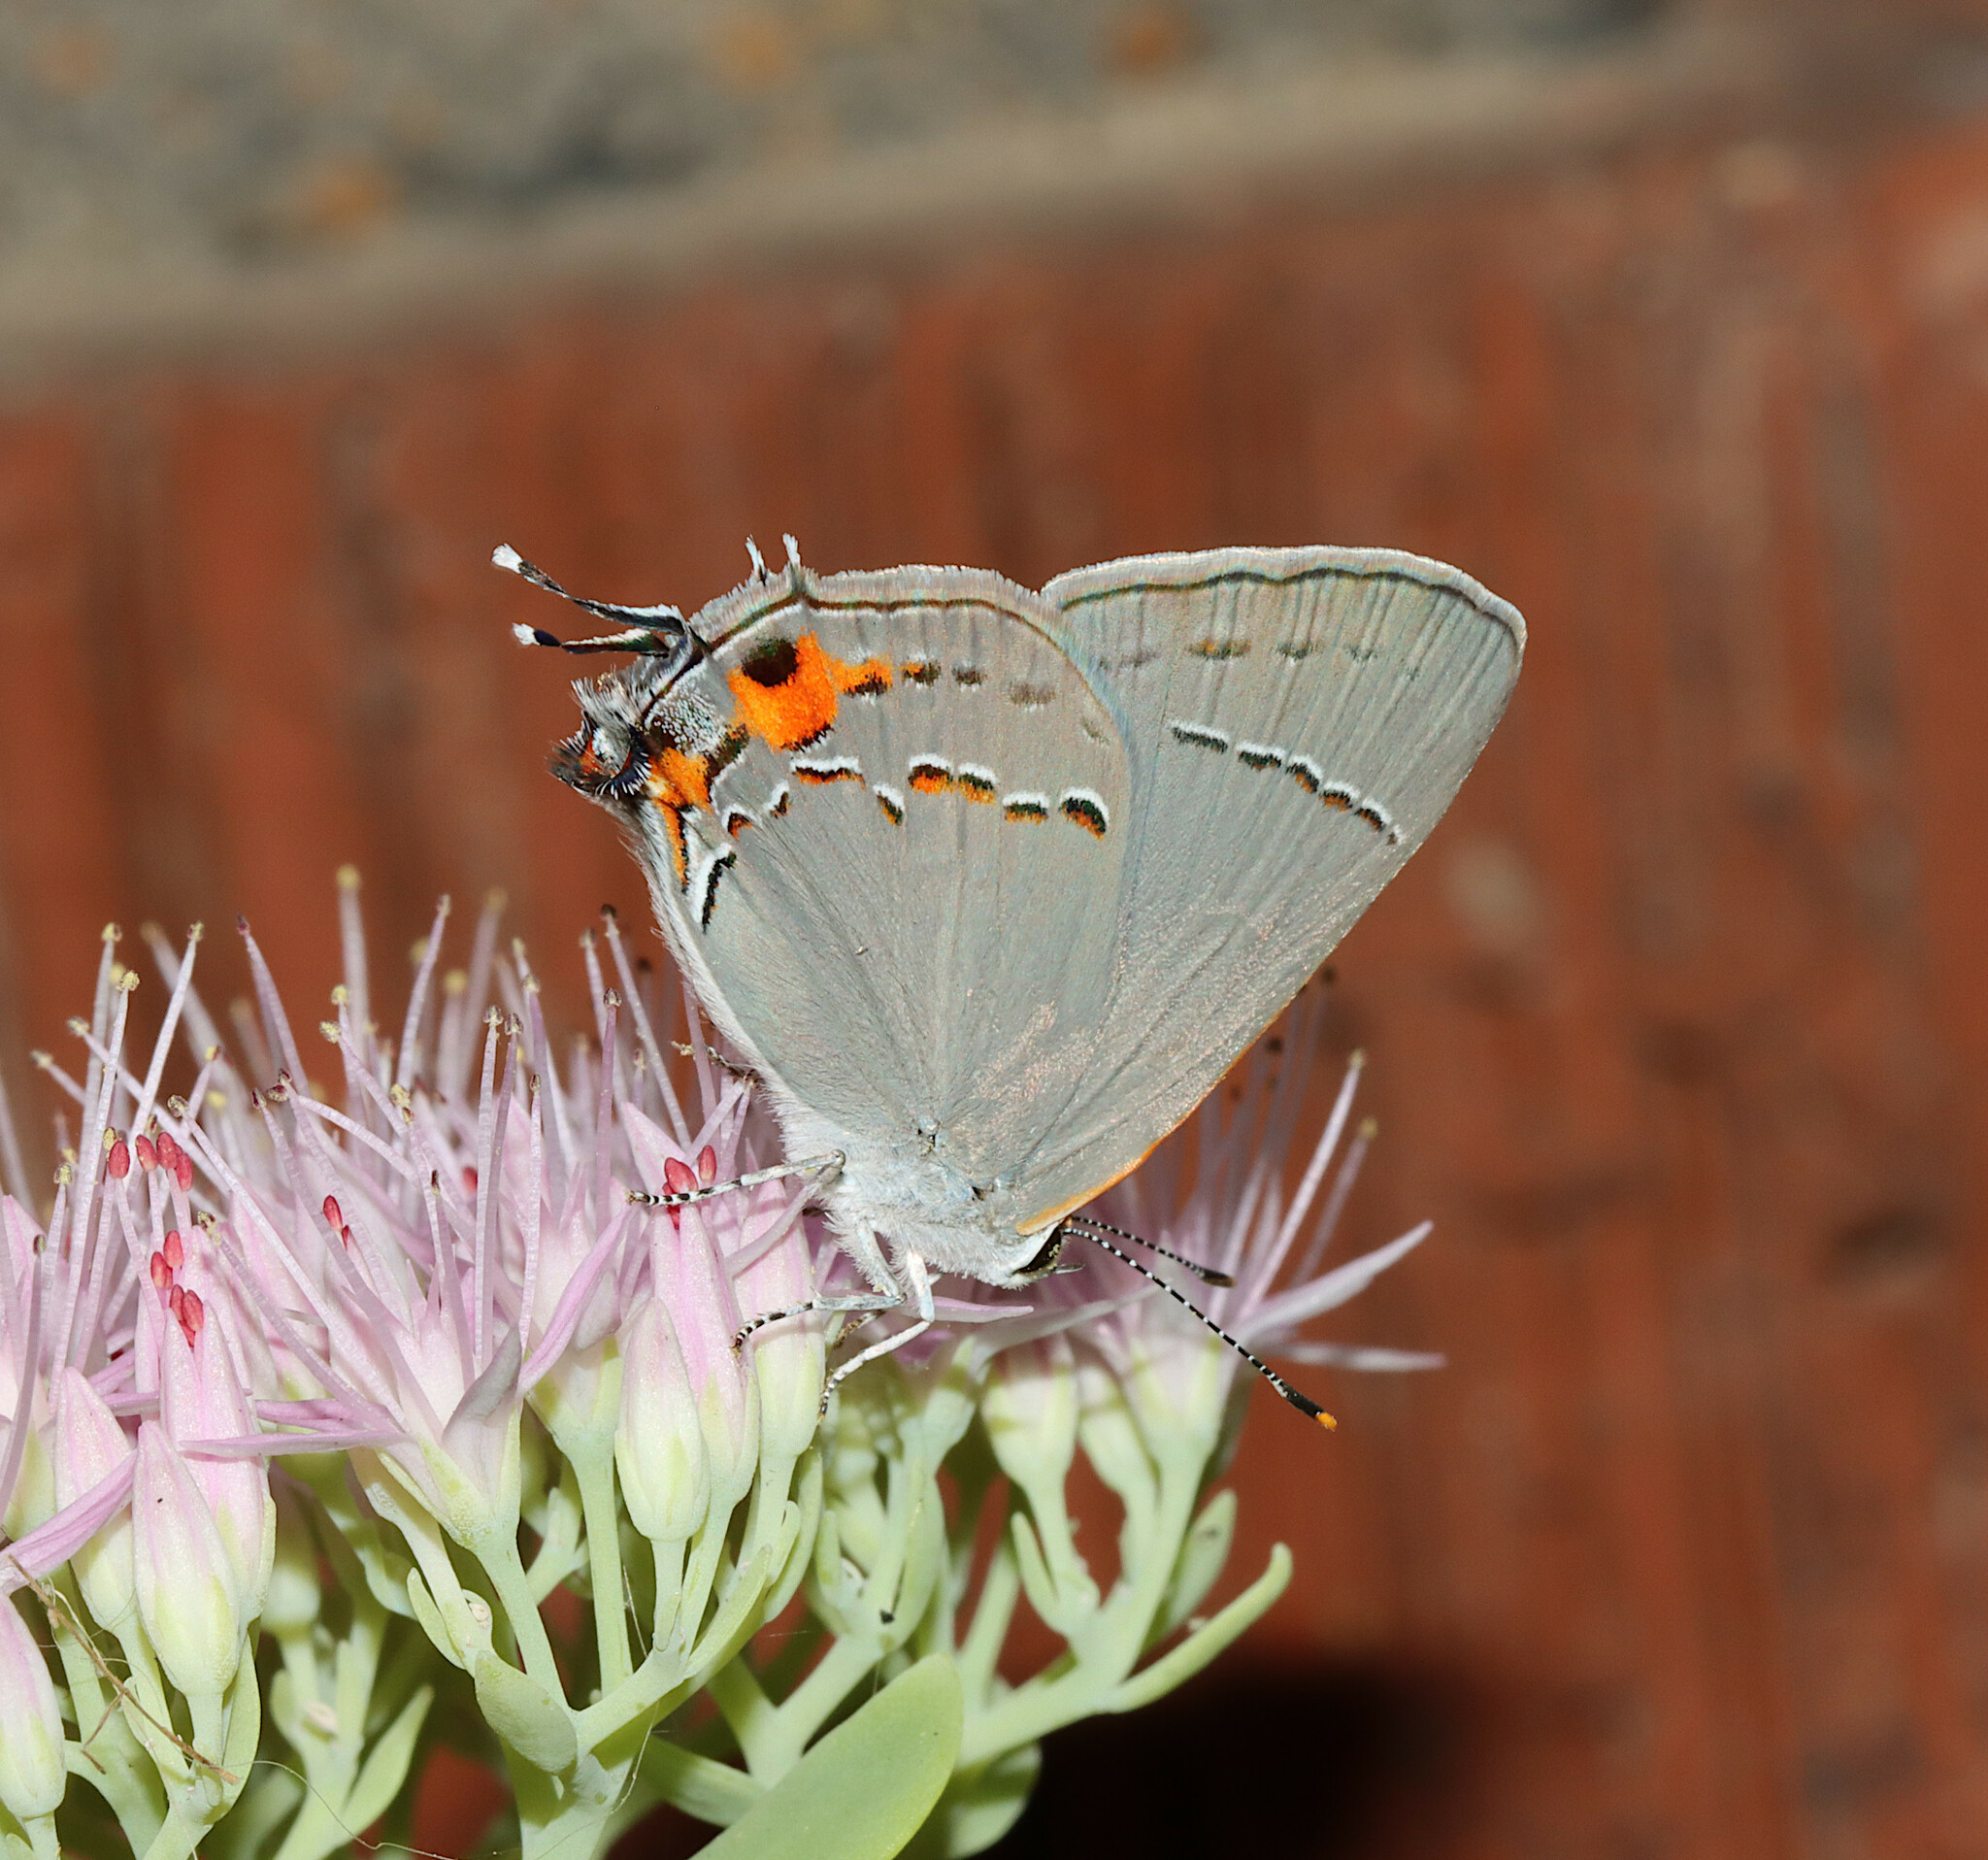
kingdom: Animalia
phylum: Arthropoda
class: Insecta
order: Lepidoptera
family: Lycaenidae
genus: Strymon
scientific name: Strymon melinus
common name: Gray hairstreak
